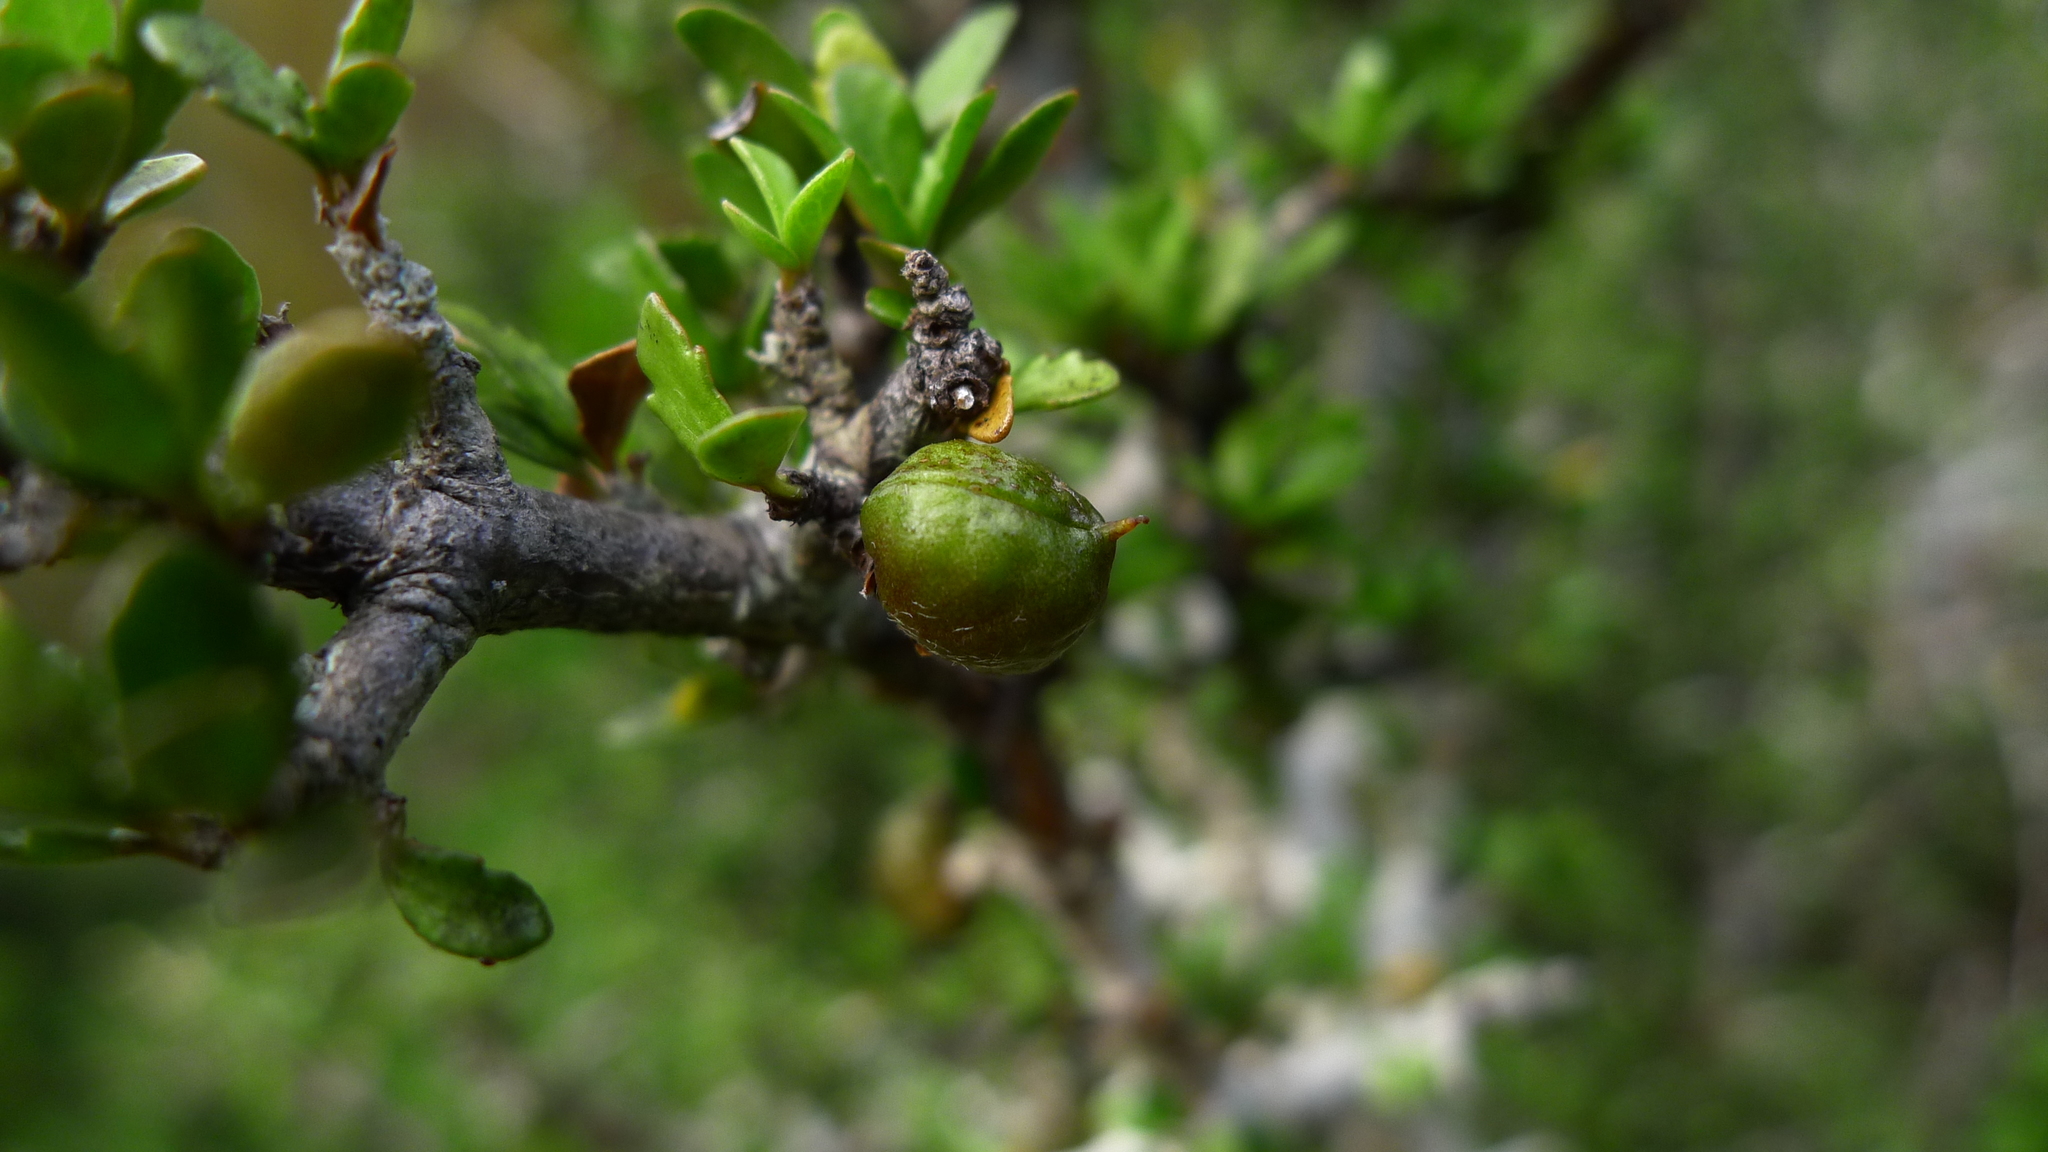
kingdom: Plantae
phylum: Tracheophyta
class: Magnoliopsida
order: Apiales
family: Pittosporaceae
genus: Pittosporum
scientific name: Pittosporum rigidum
